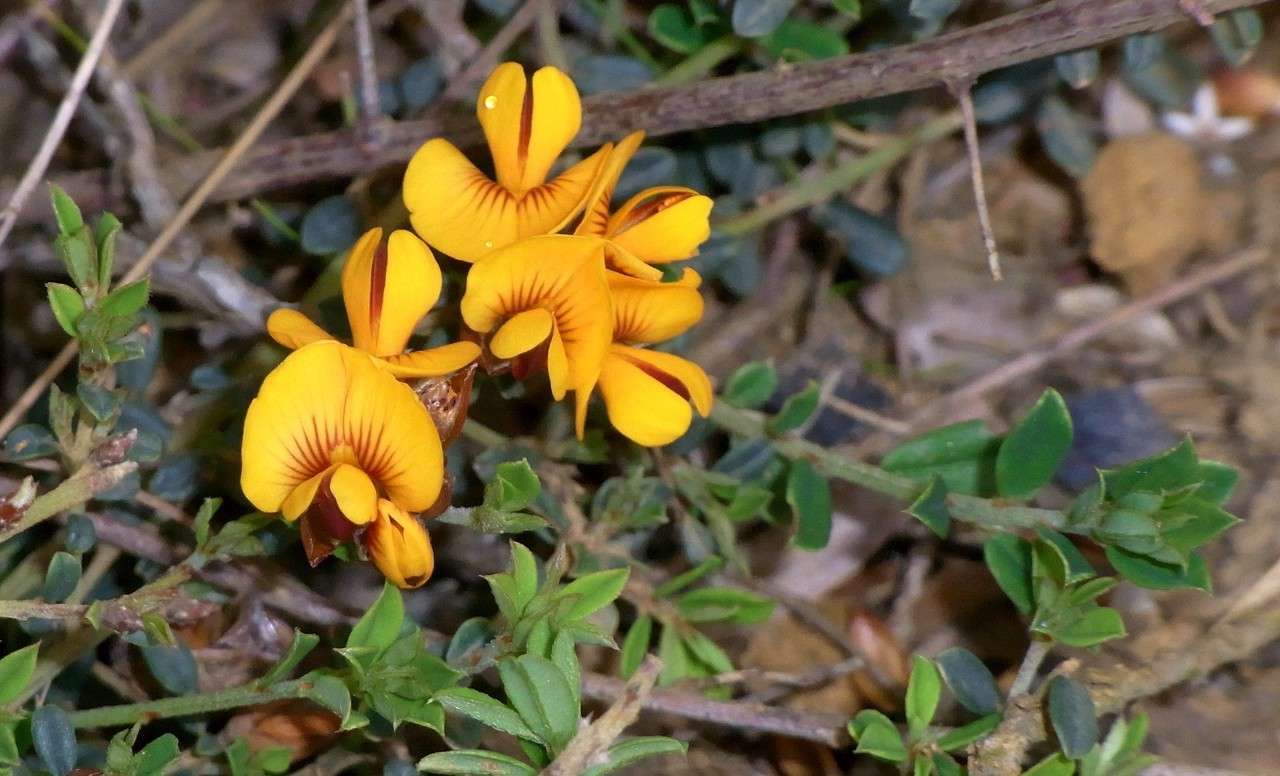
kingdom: Plantae
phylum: Tracheophyta
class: Magnoliopsida
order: Fabales
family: Fabaceae
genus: Pultenaea
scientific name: Pultenaea stricta
